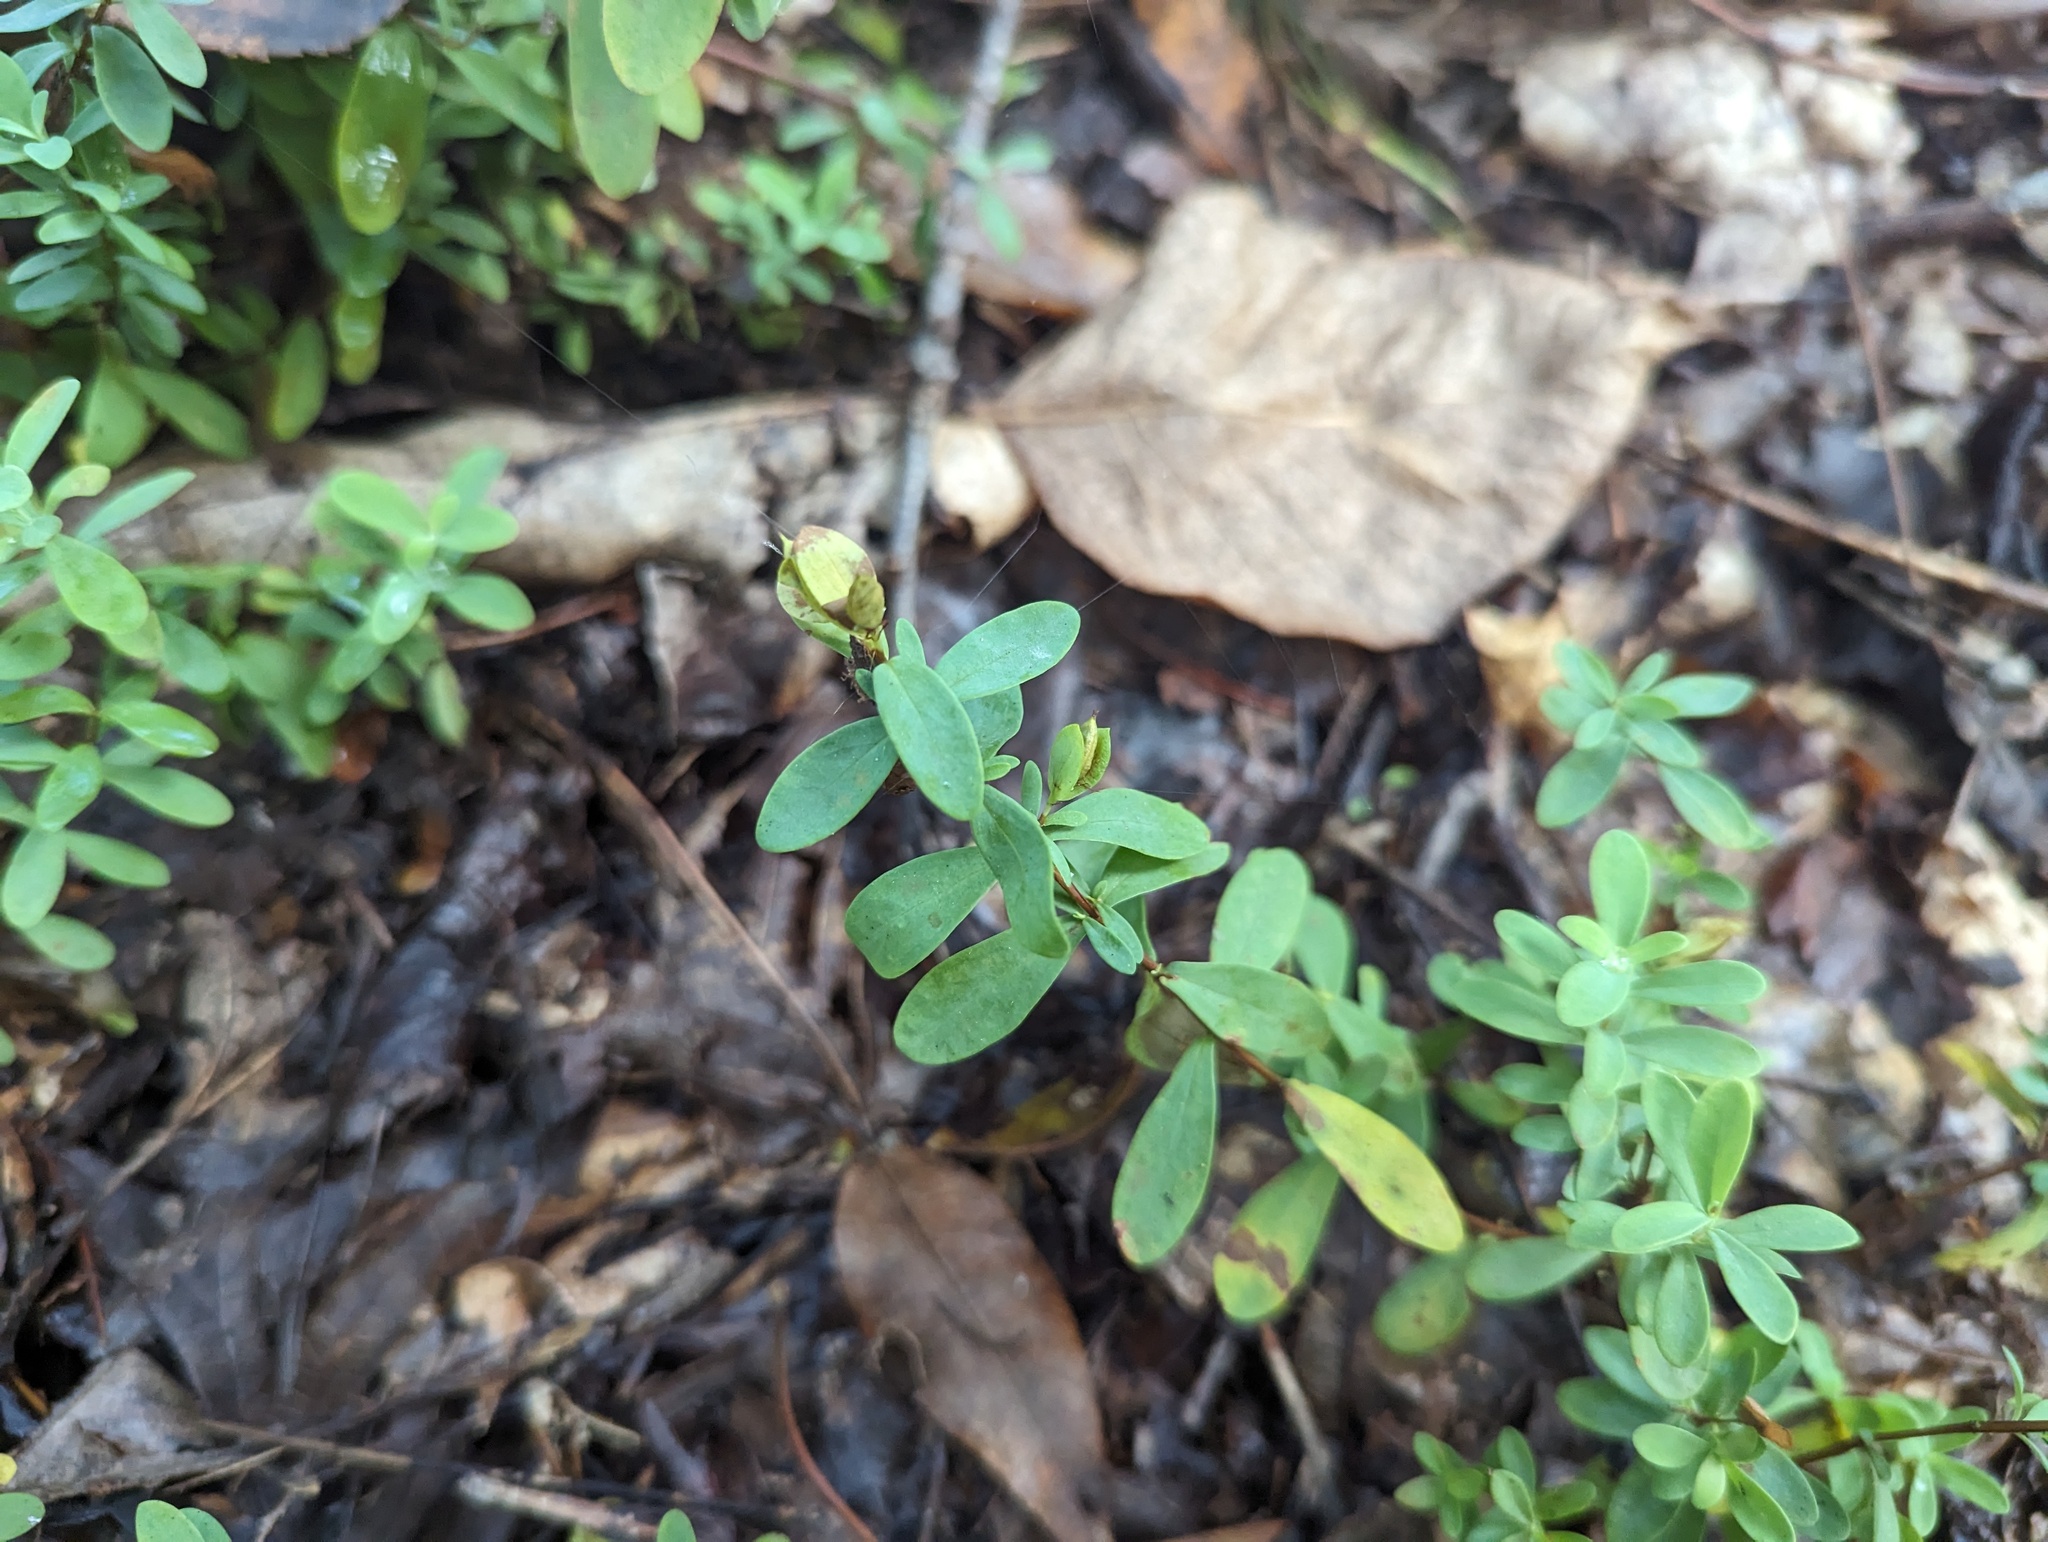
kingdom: Plantae
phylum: Tracheophyta
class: Magnoliopsida
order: Malpighiales
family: Hypericaceae
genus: Hypericum
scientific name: Hypericum hypericoides
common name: St. andrew's cross
